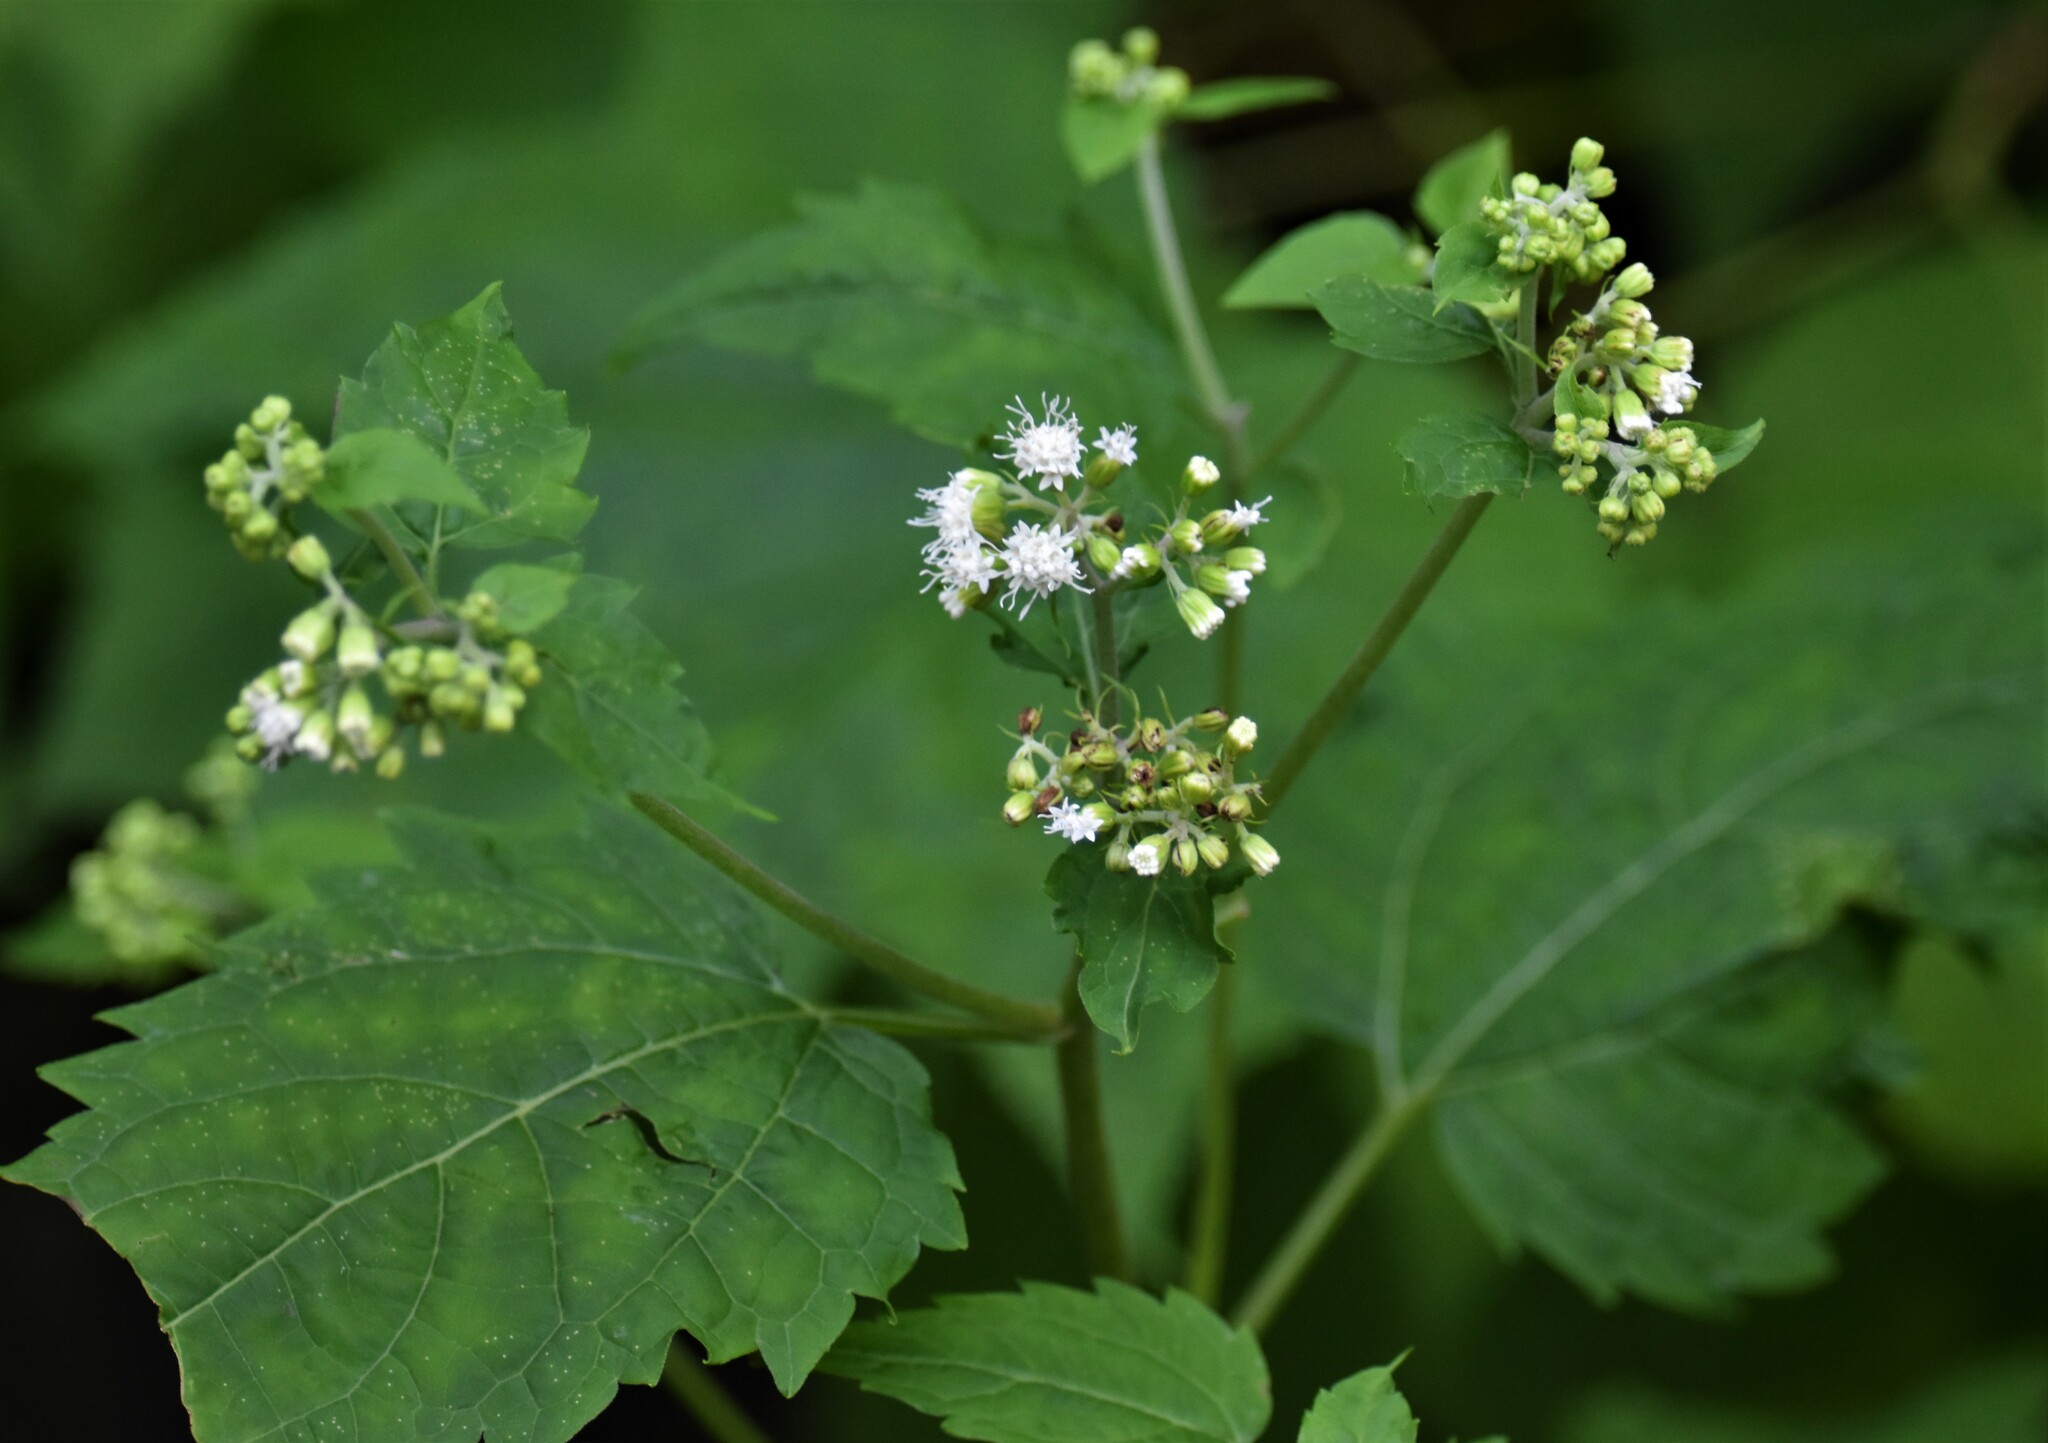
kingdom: Plantae
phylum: Tracheophyta
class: Magnoliopsida
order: Asterales
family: Asteraceae
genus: Ageratina
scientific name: Ageratina altissima
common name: White snakeroot
